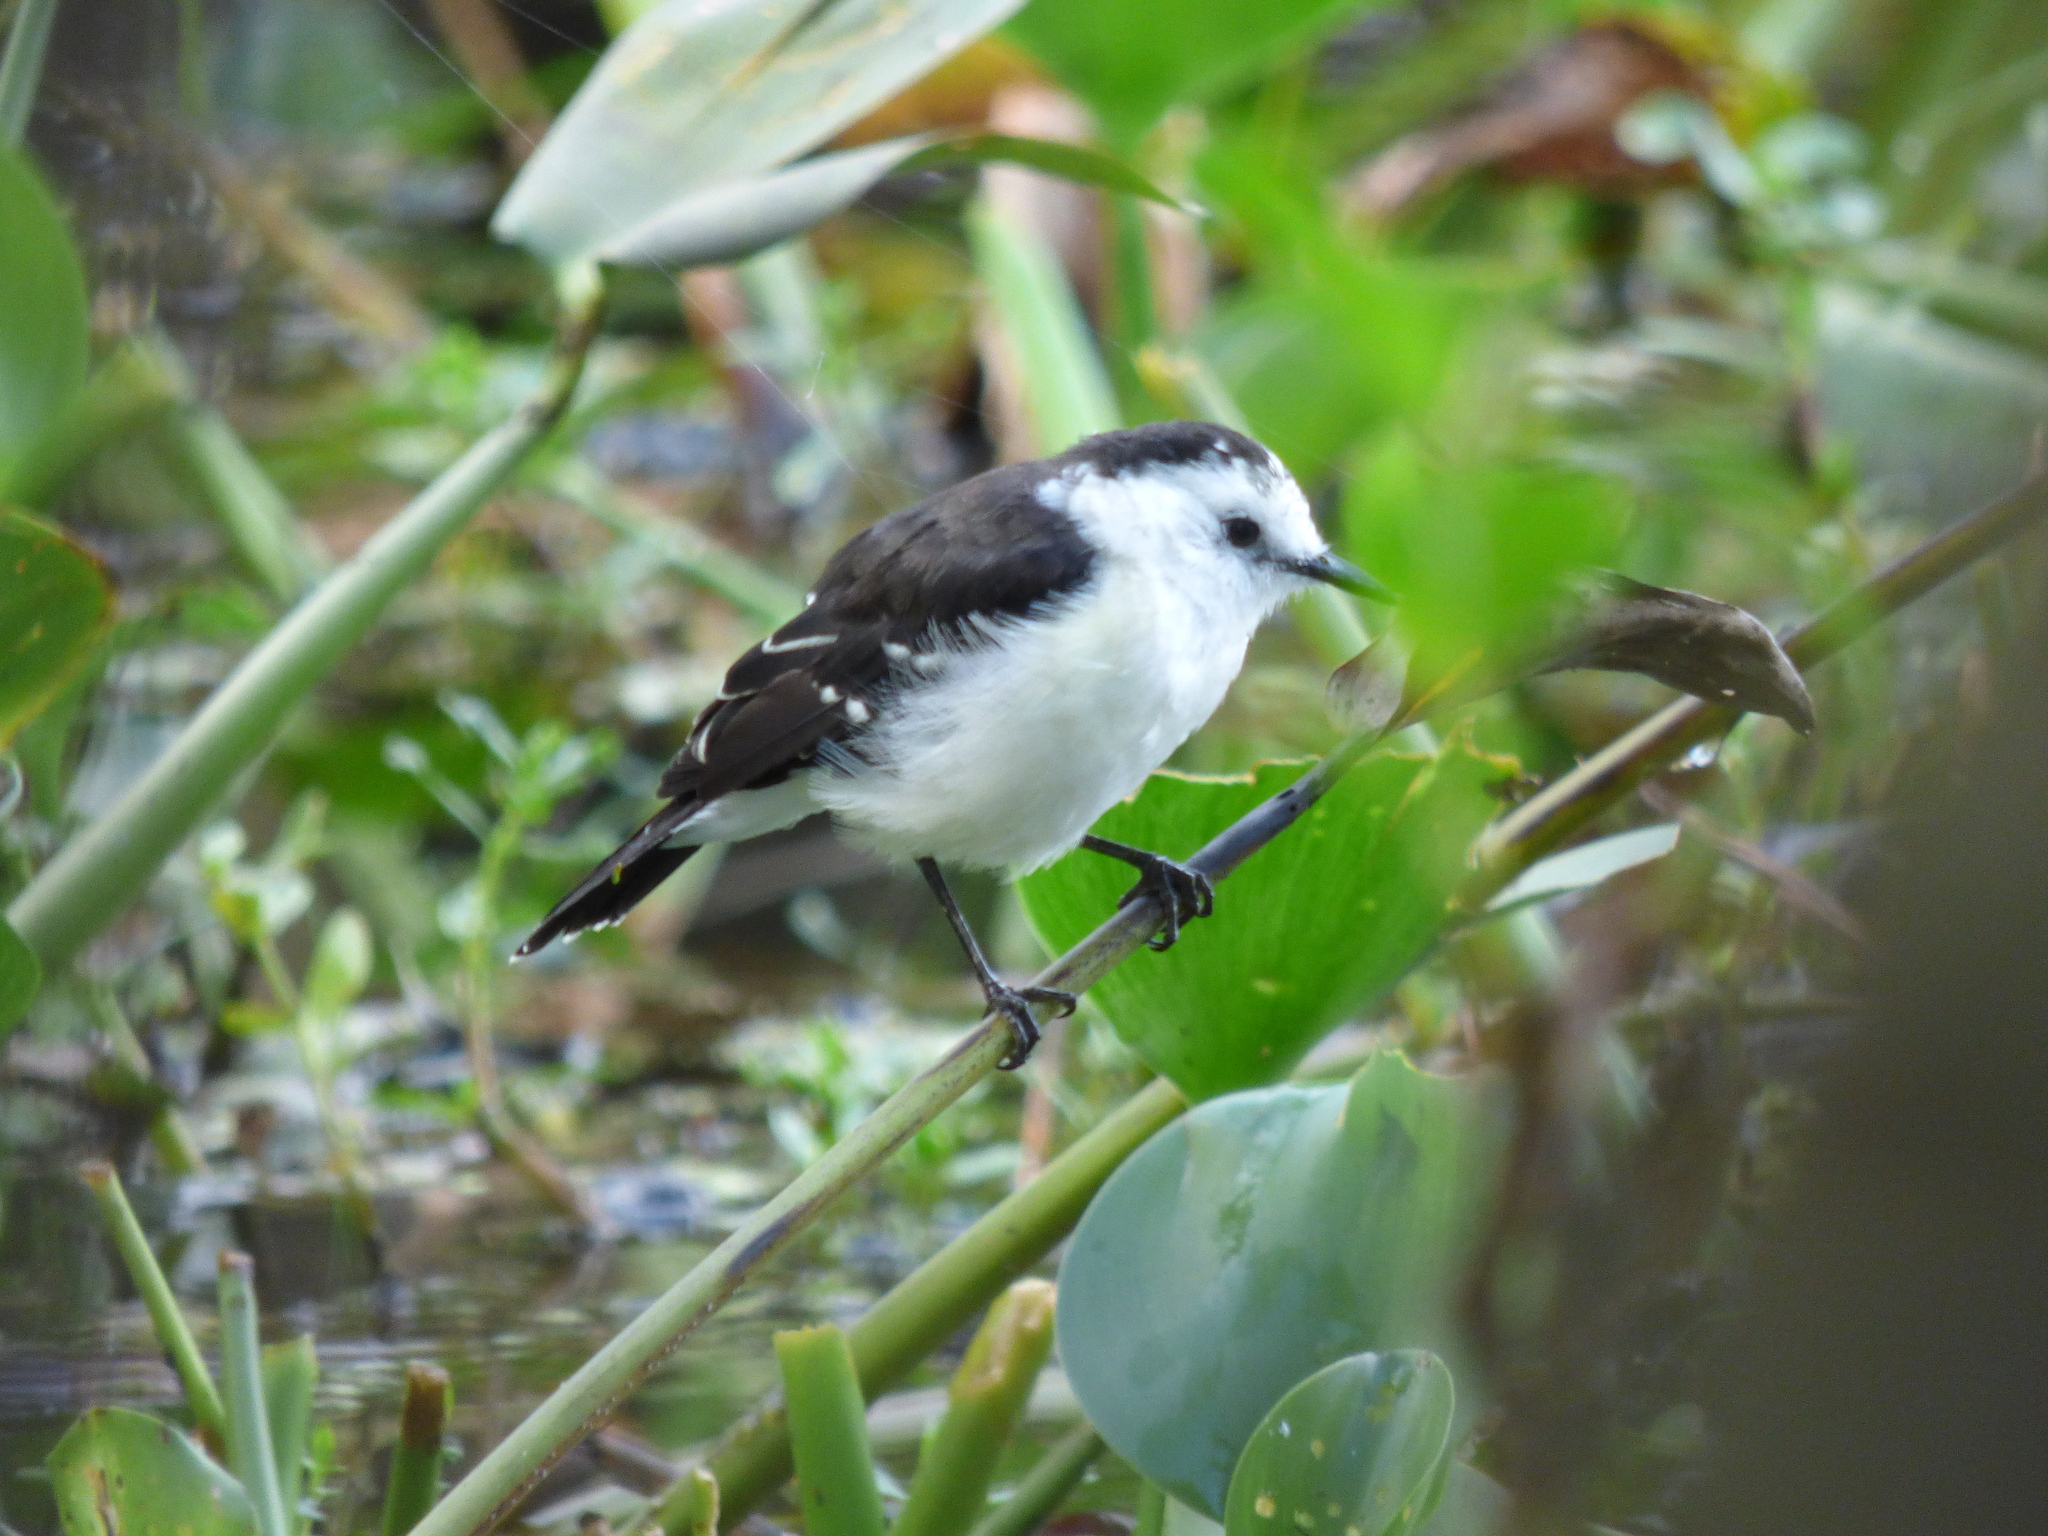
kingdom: Animalia
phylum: Chordata
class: Aves
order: Passeriformes
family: Tyrannidae
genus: Fluvicola
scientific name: Fluvicola pica
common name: Pied water-tyrant
